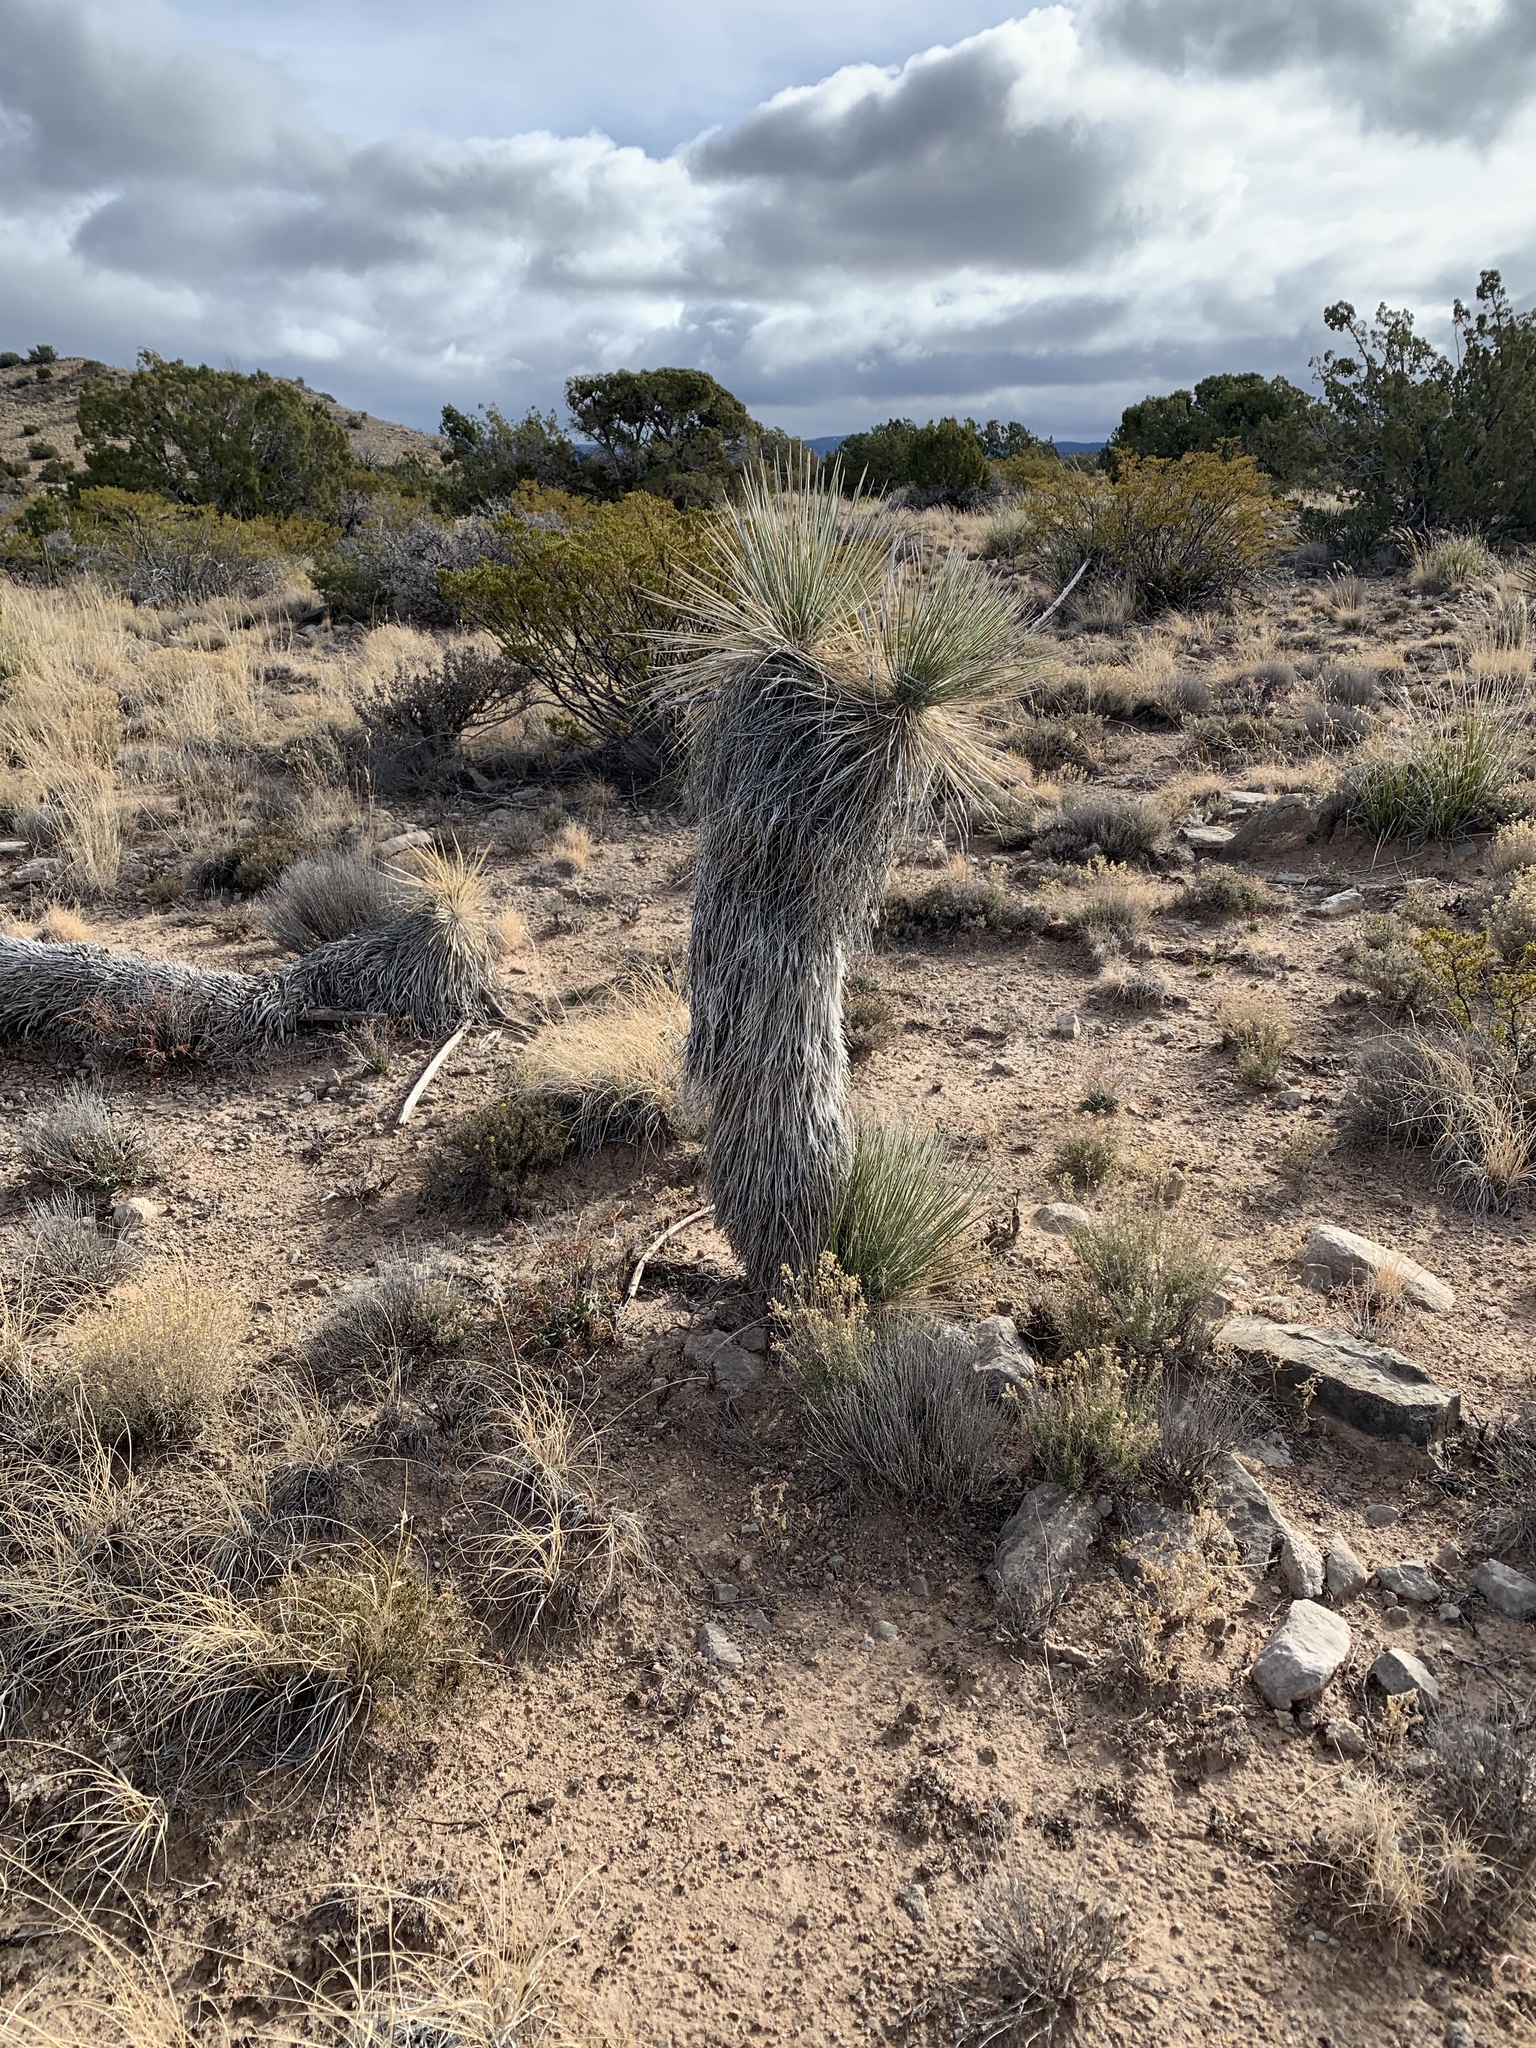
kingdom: Plantae
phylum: Tracheophyta
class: Liliopsida
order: Asparagales
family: Asparagaceae
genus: Yucca
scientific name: Yucca elata
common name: Palmella
